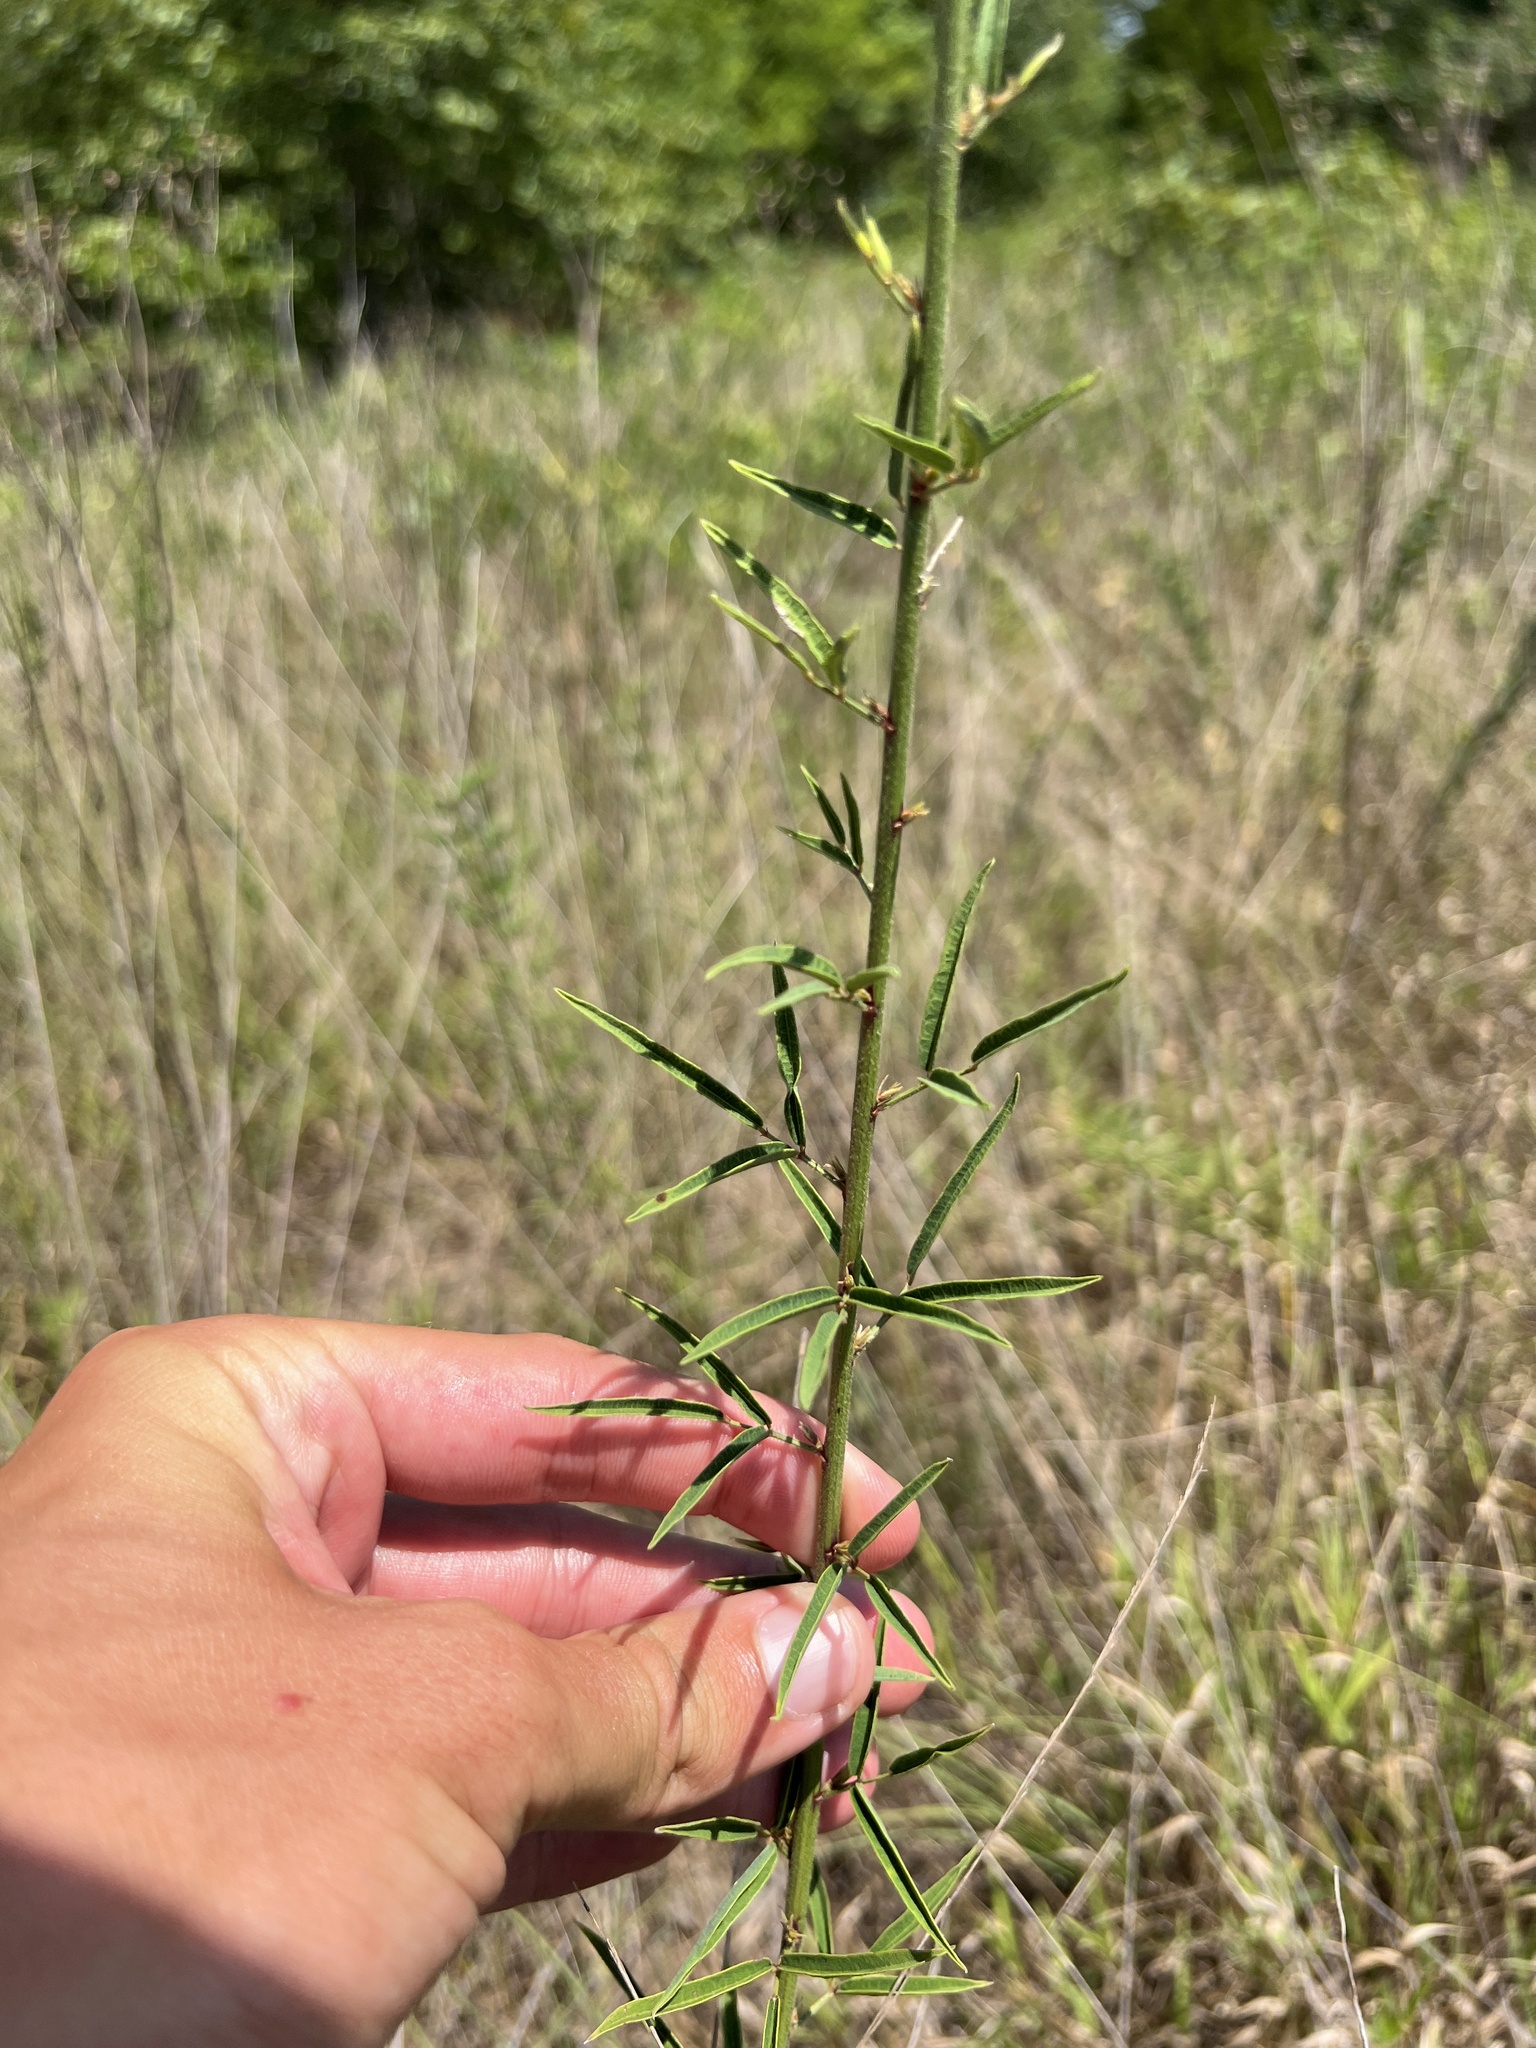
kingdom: Plantae
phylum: Tracheophyta
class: Magnoliopsida
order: Fabales
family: Fabaceae
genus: Desmodium
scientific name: Desmodium strictum
